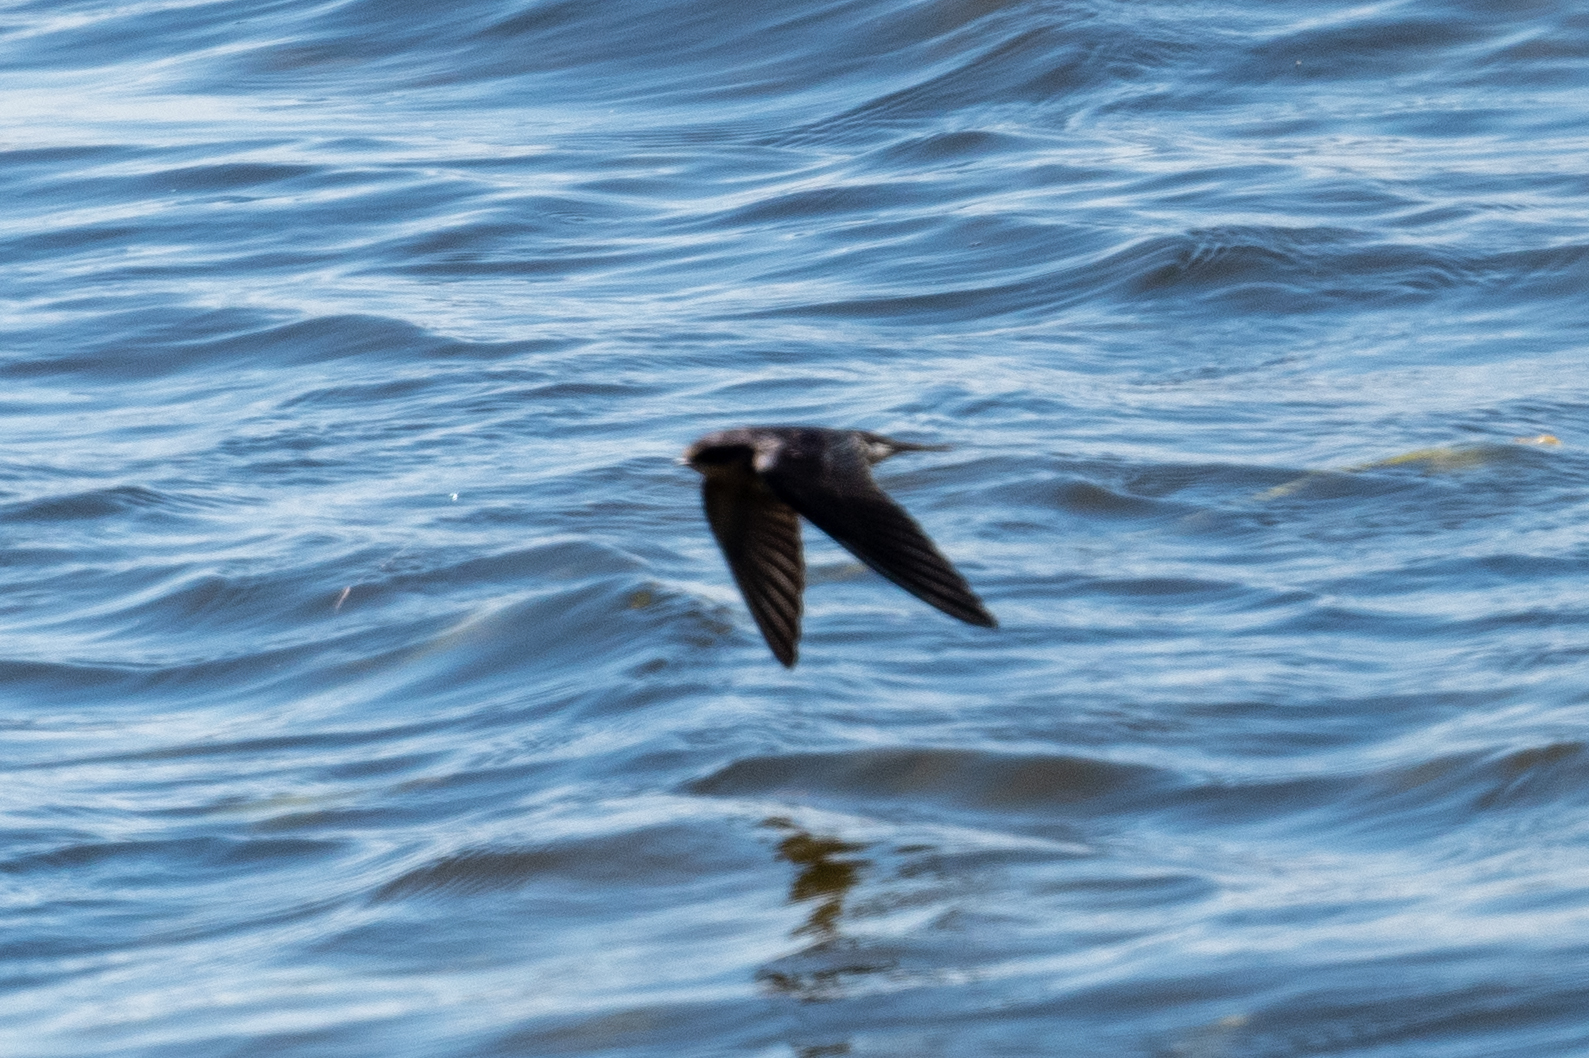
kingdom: Animalia
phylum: Chordata
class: Aves
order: Passeriformes
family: Hirundinidae
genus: Hirundo
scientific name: Hirundo rustica
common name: Barn swallow
